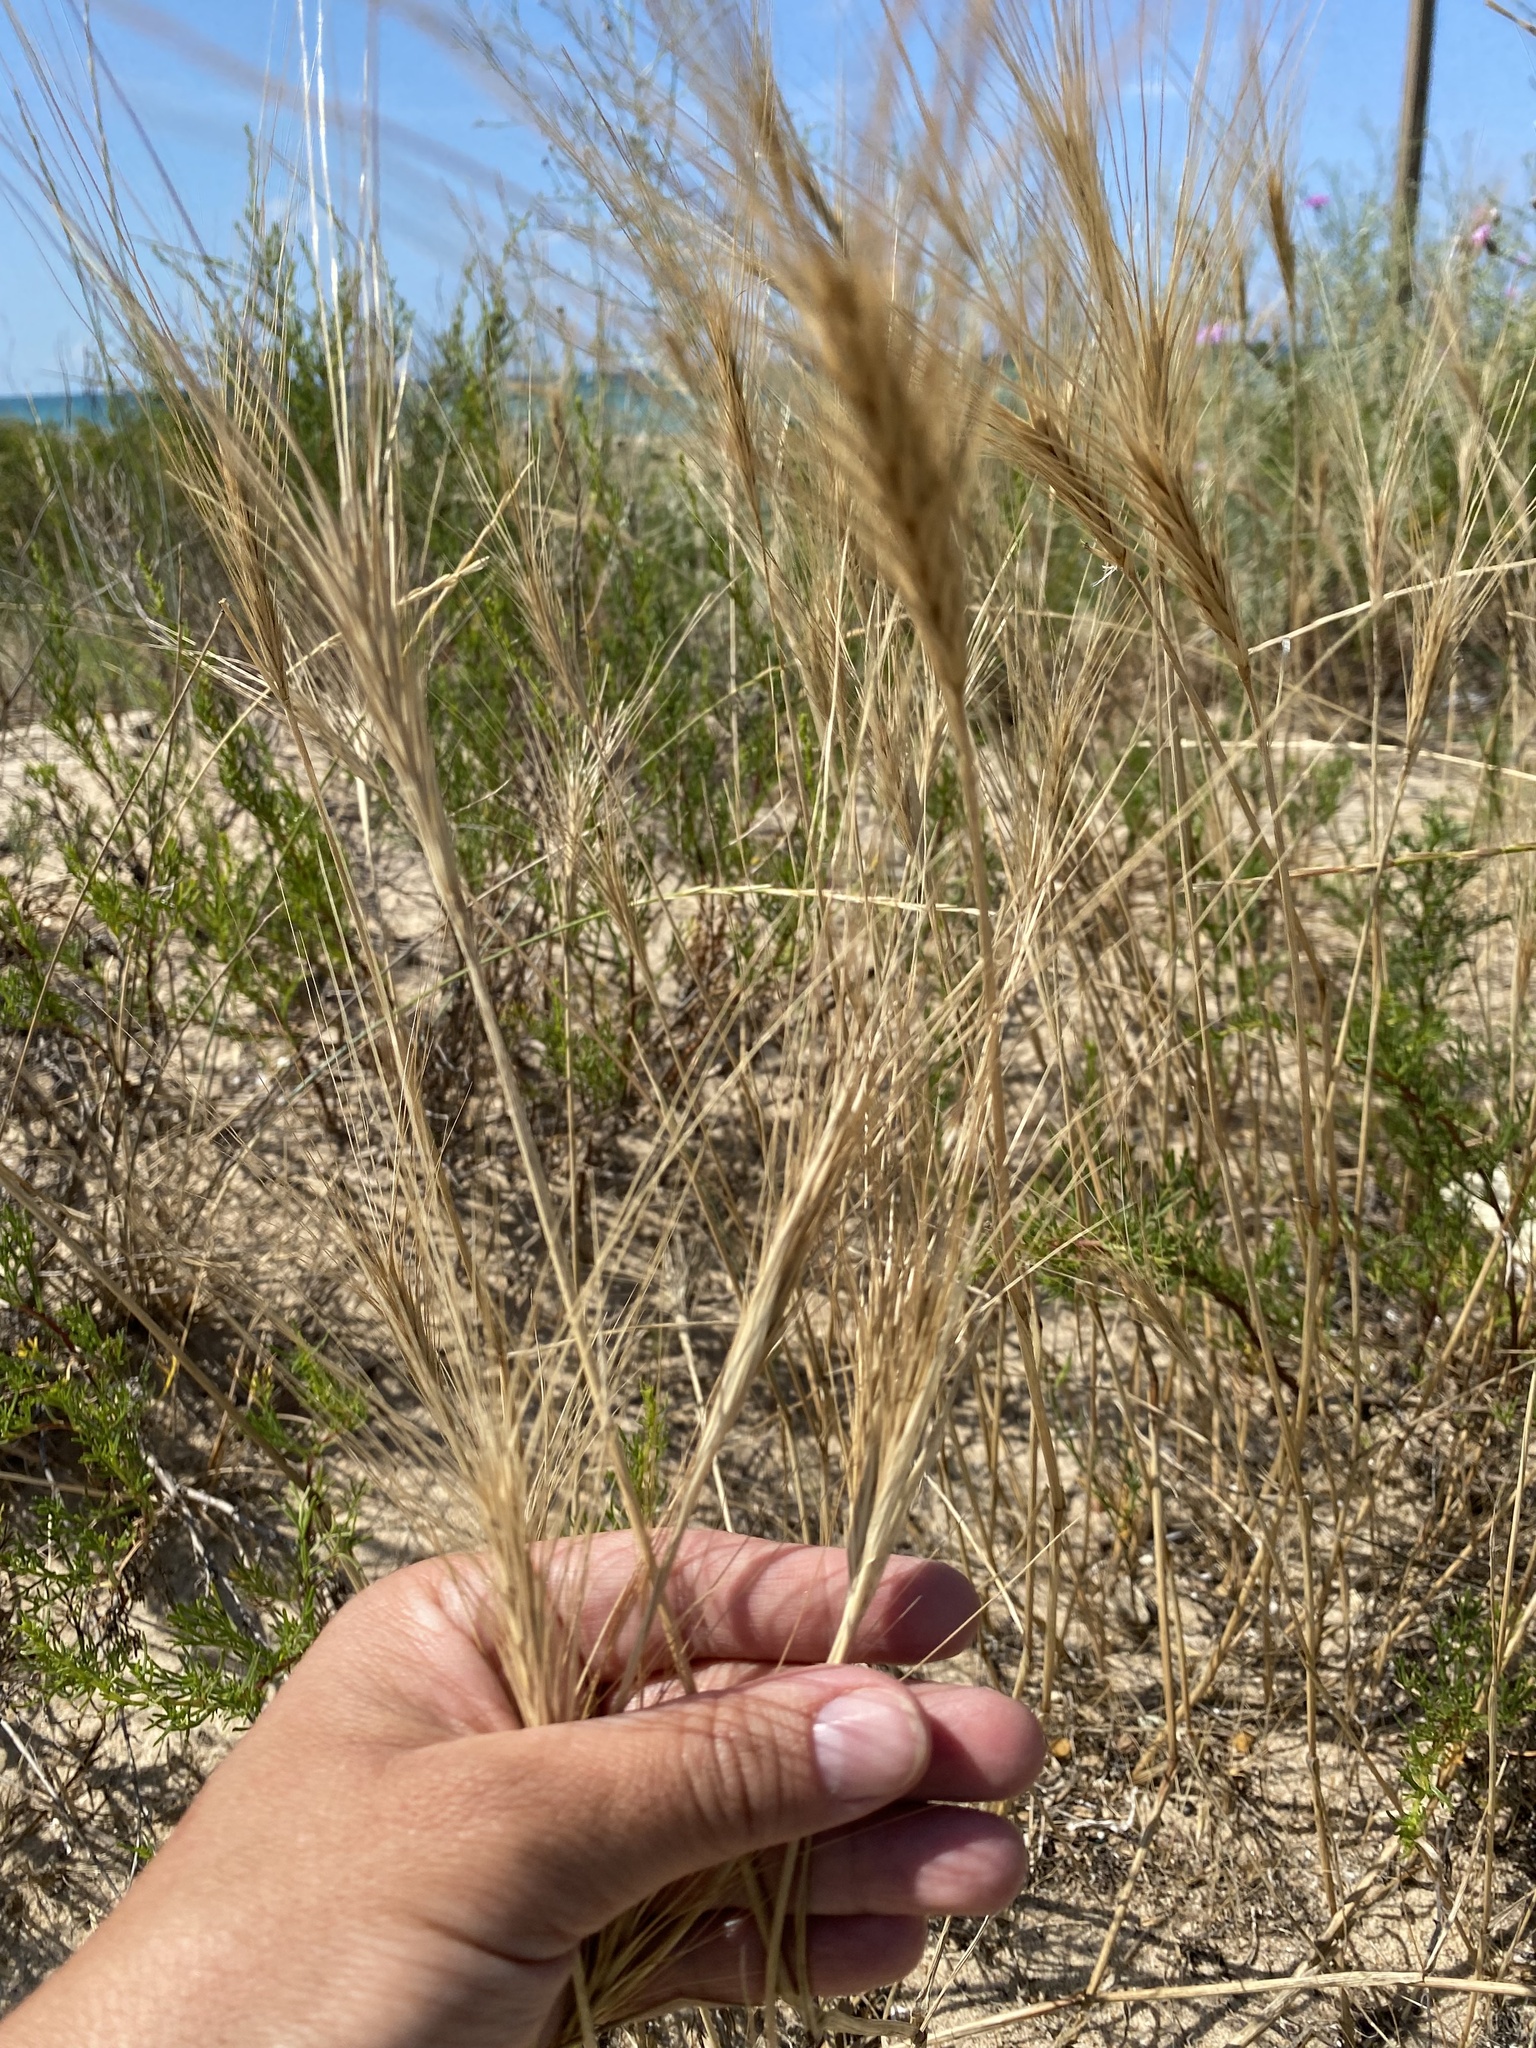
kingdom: Plantae
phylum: Tracheophyta
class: Liliopsida
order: Poales
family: Poaceae
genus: Secale
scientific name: Secale sylvestre
